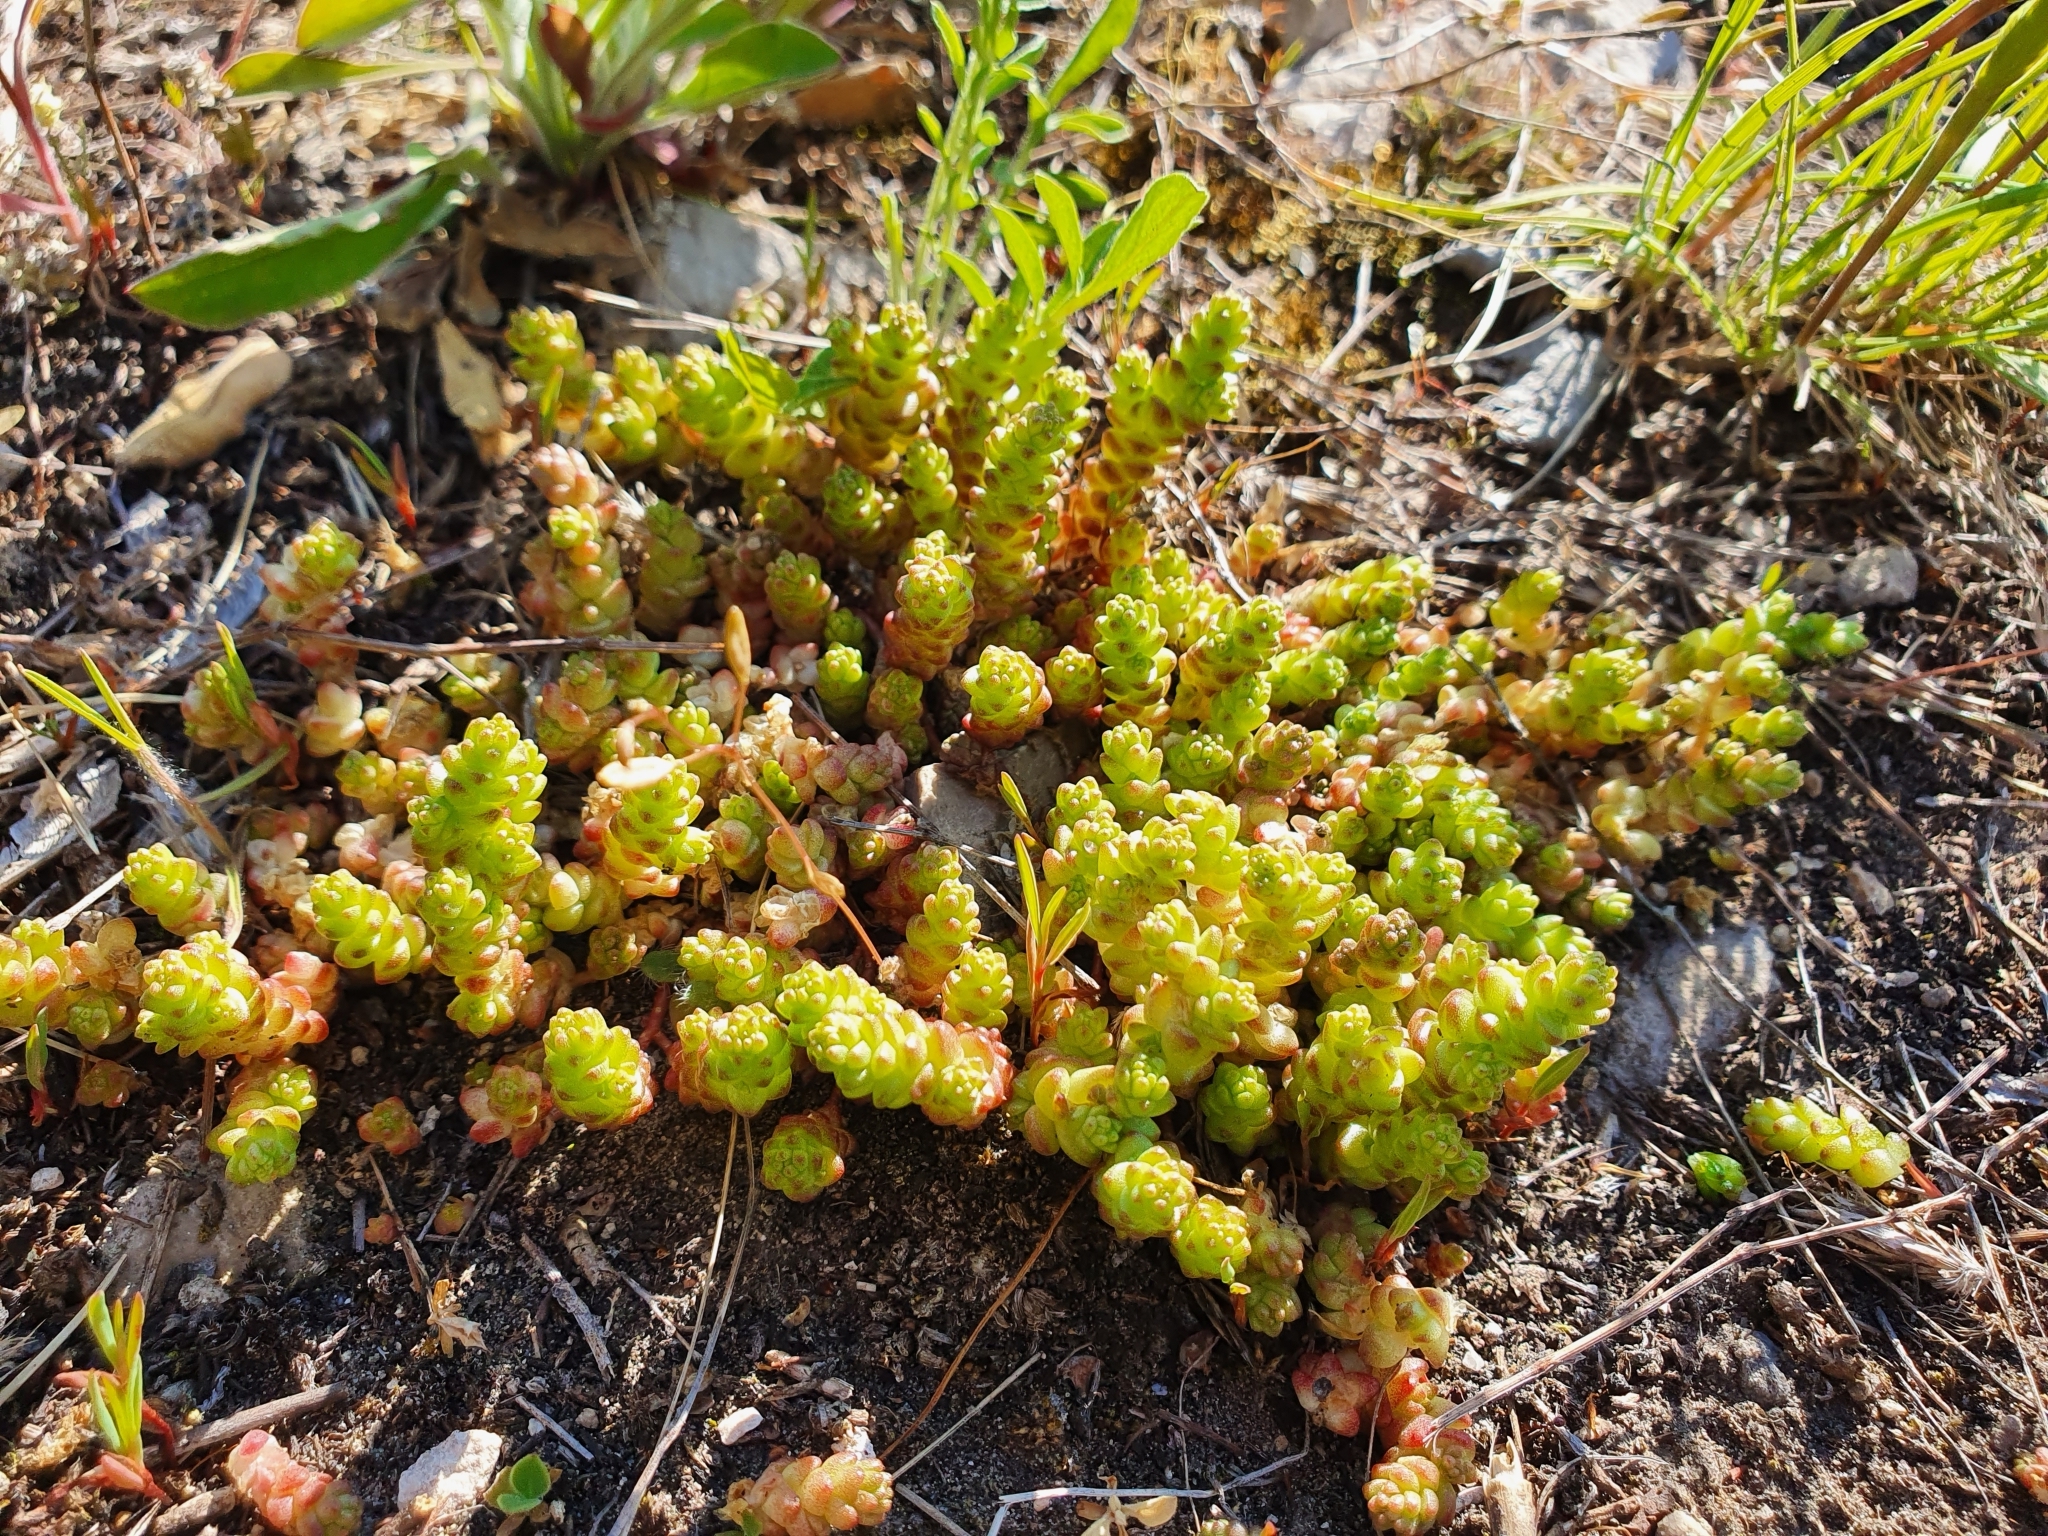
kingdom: Plantae
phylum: Tracheophyta
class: Magnoliopsida
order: Saxifragales
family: Crassulaceae
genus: Sedum
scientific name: Sedum acre
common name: Biting stonecrop
